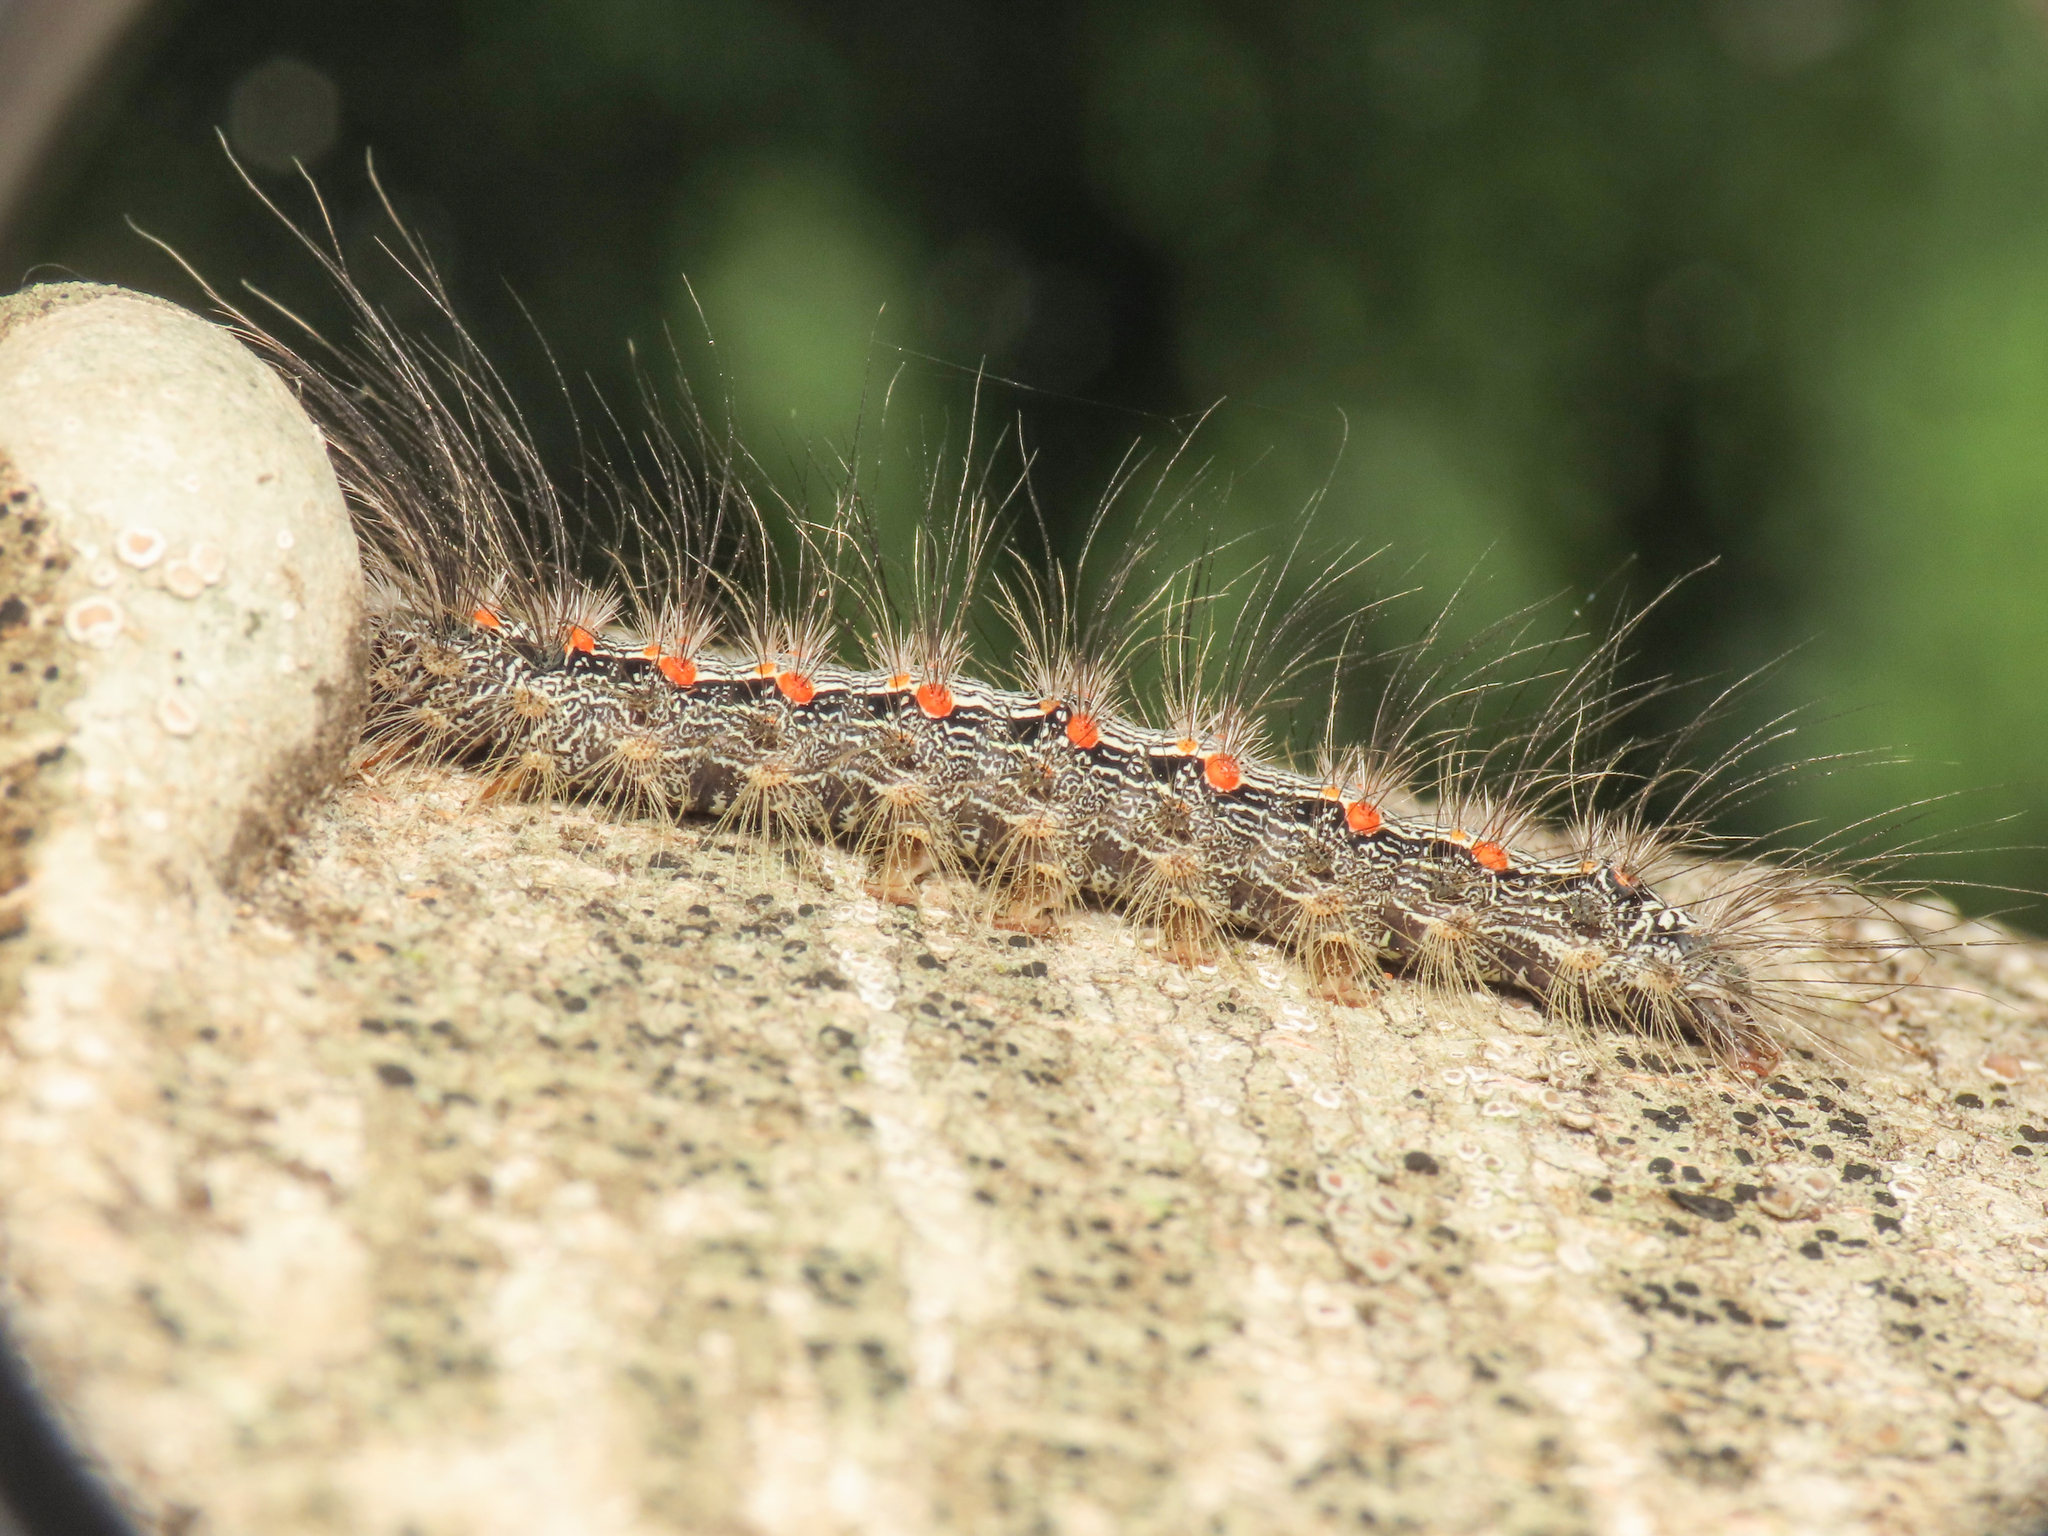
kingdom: Animalia
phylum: Arthropoda
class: Insecta
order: Lepidoptera
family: Erebidae
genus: Lithosia
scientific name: Lithosia quadra
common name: Four-spotted footman
